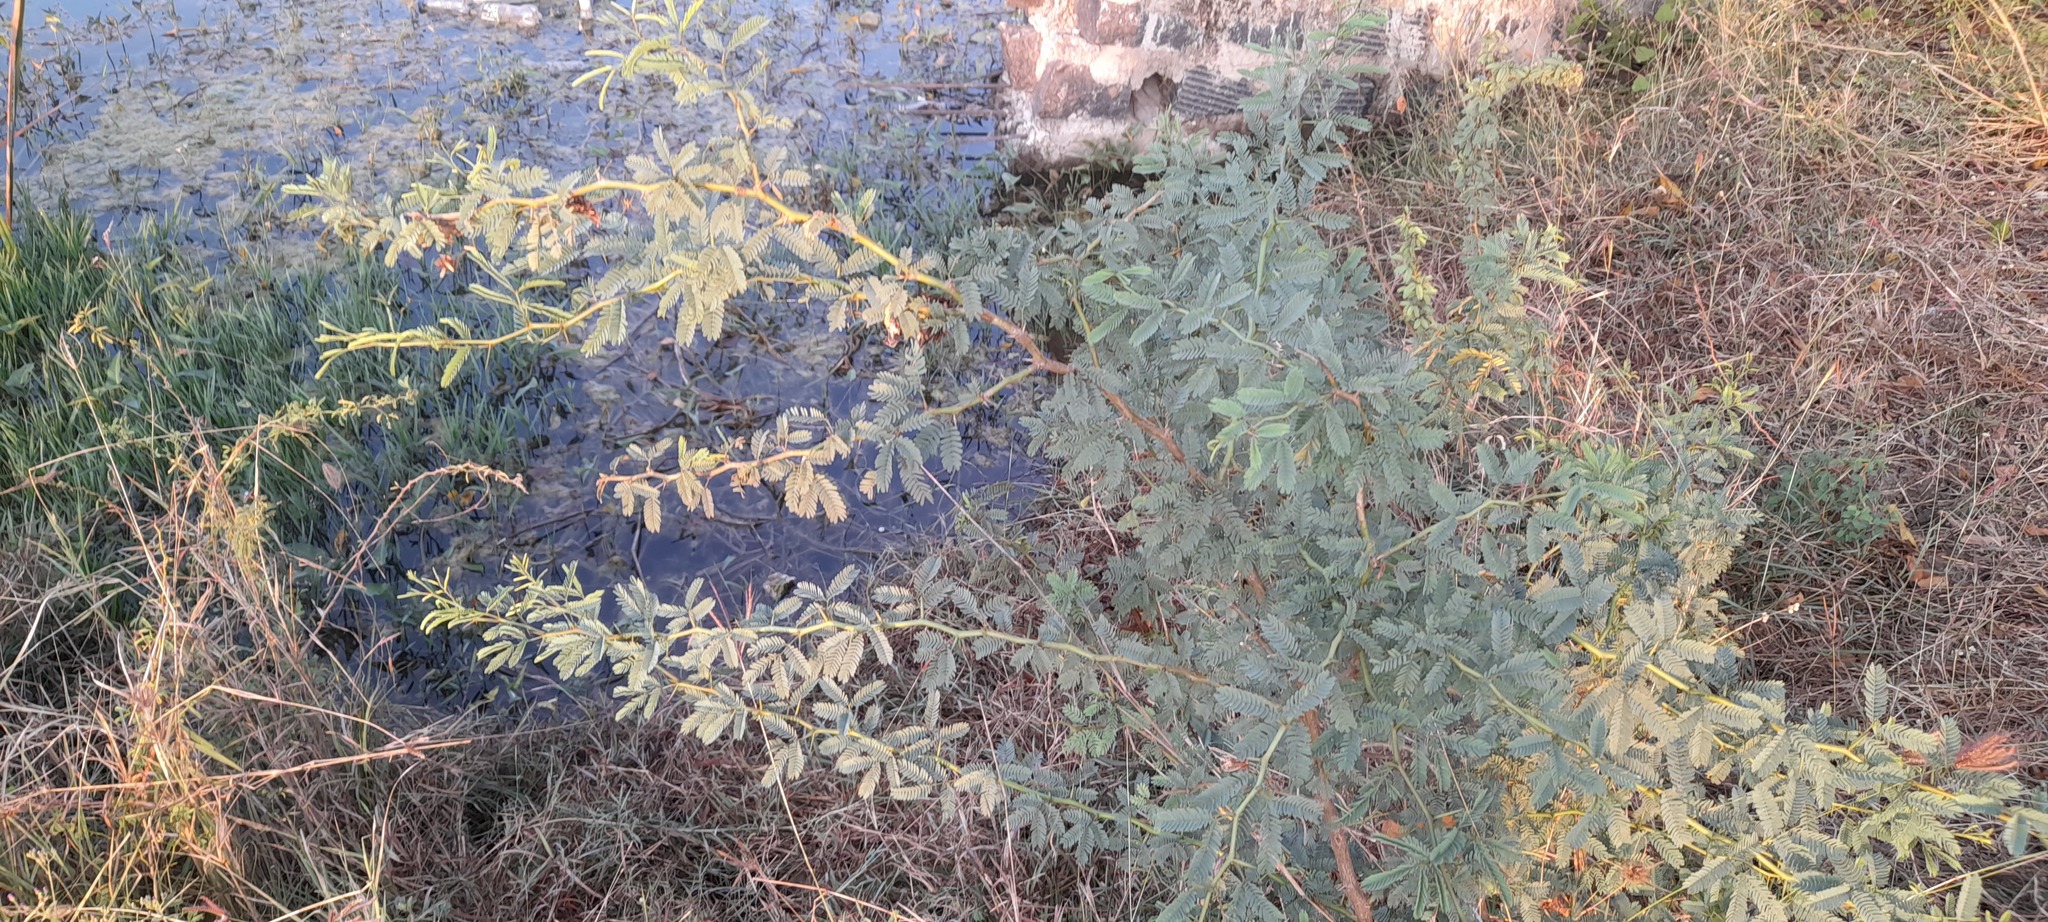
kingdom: Plantae
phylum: Tracheophyta
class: Magnoliopsida
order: Fabales
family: Fabaceae
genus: Prosopis
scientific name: Prosopis juliflora
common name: Mesquite
